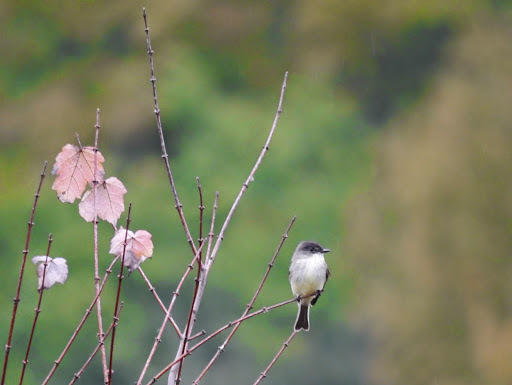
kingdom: Animalia
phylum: Chordata
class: Aves
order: Passeriformes
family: Tyrannidae
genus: Sayornis
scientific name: Sayornis phoebe
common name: Eastern phoebe
